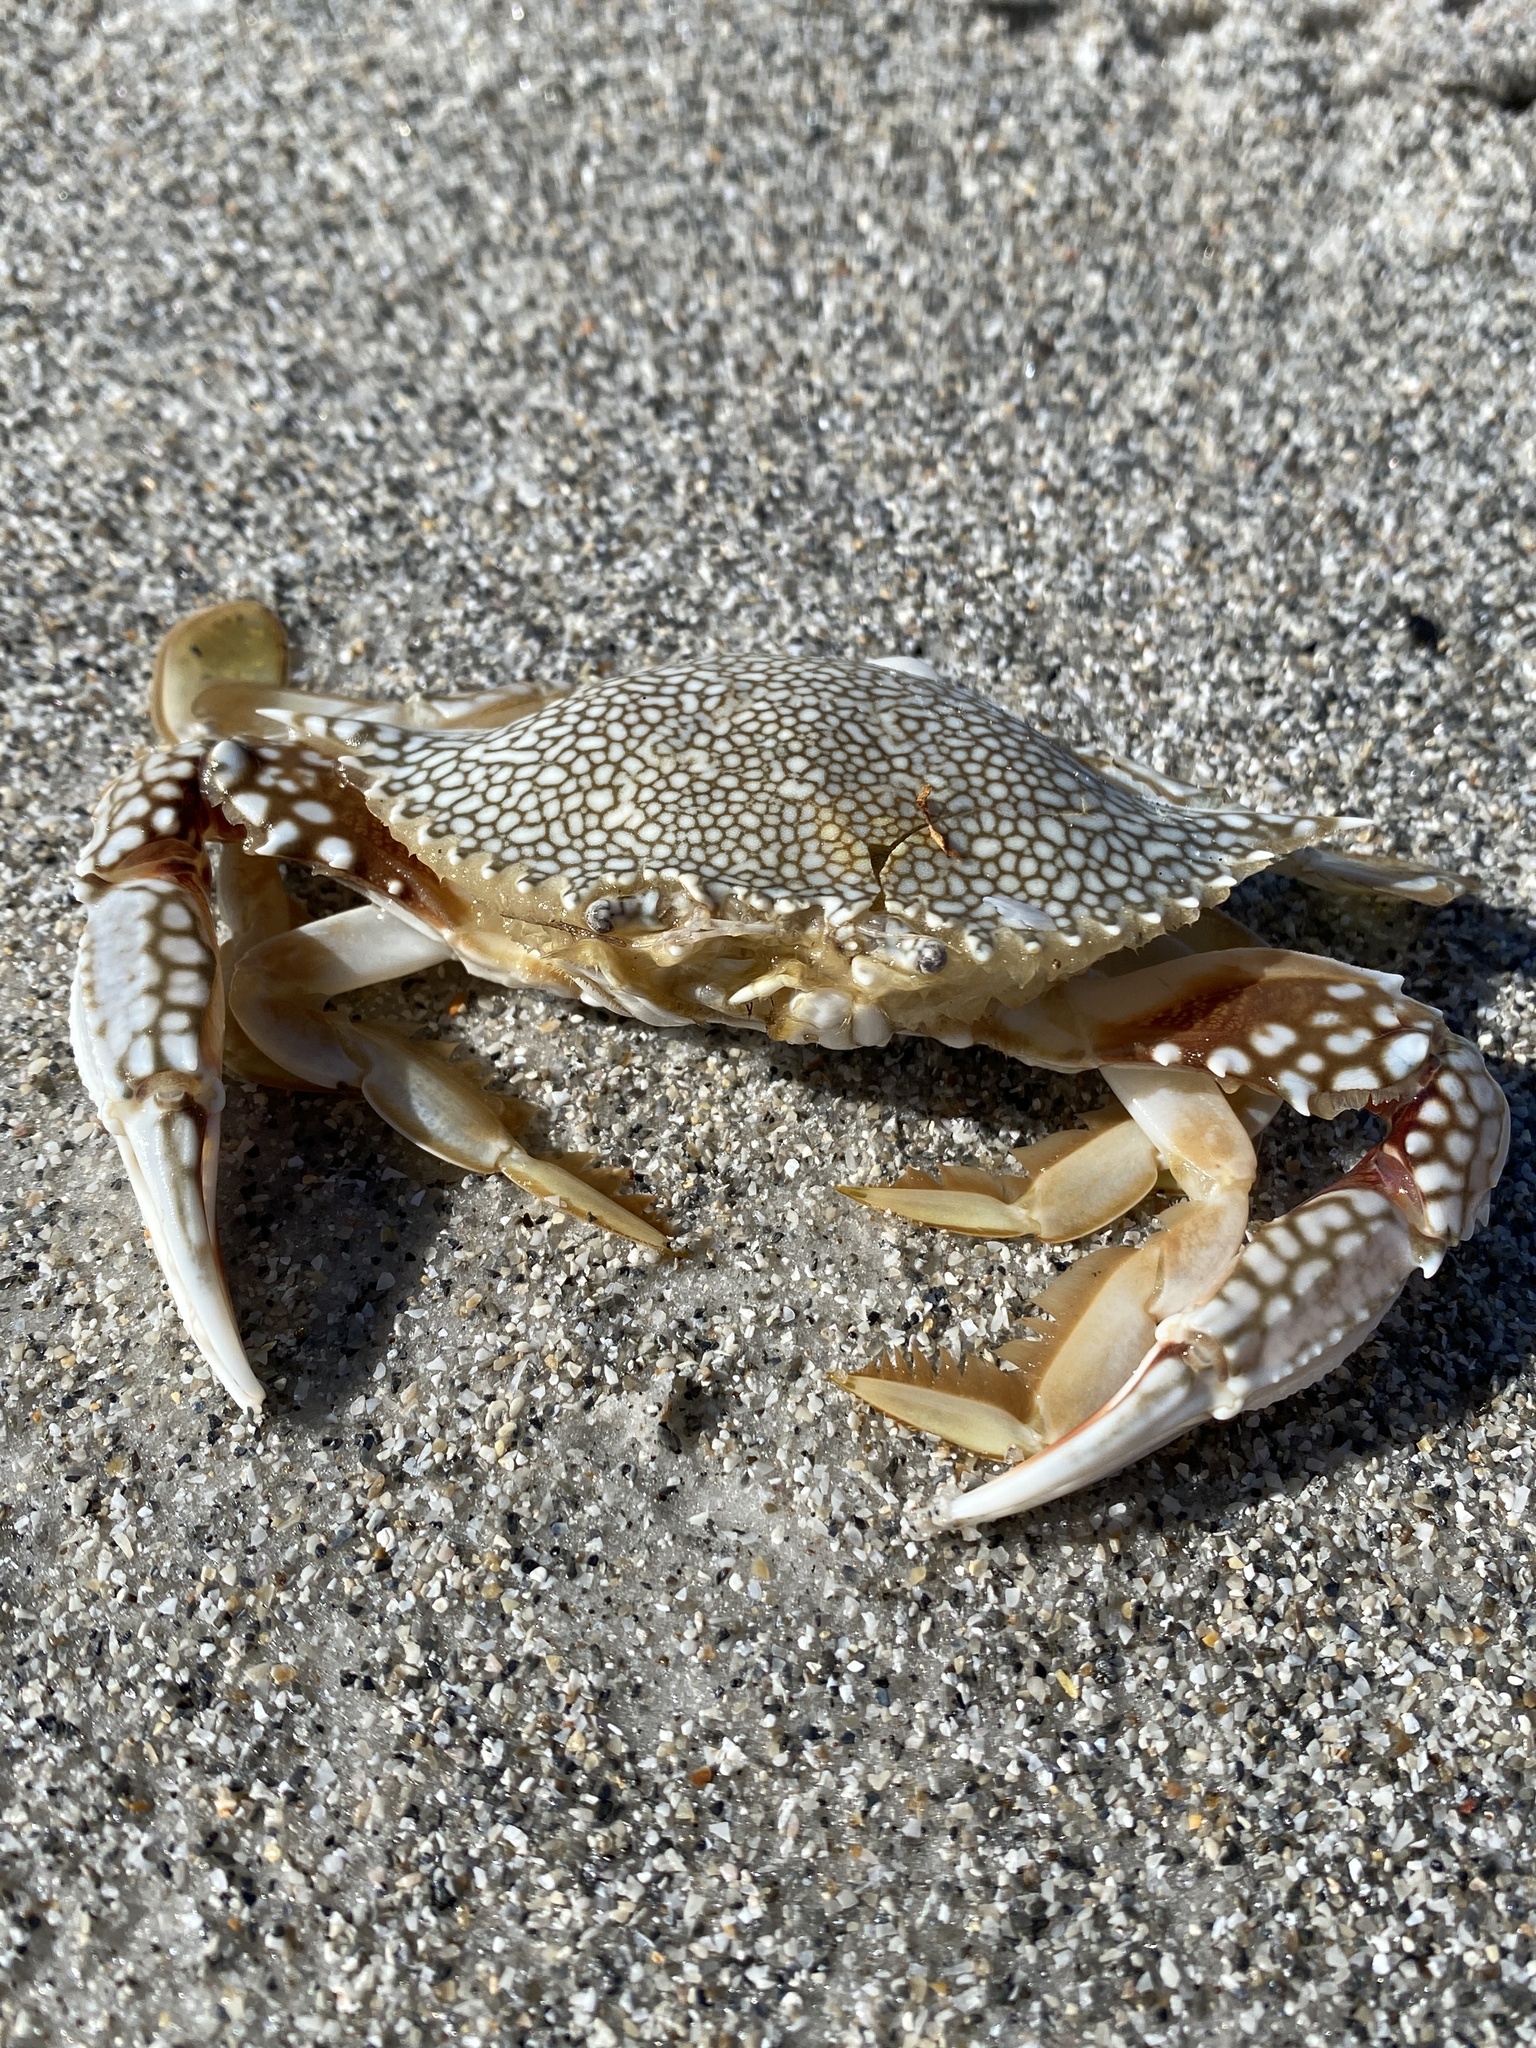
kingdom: Animalia
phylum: Arthropoda
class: Malacostraca
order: Decapoda
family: Portunidae
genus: Arenaeus
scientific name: Arenaeus cribrarius
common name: Speckled crab
